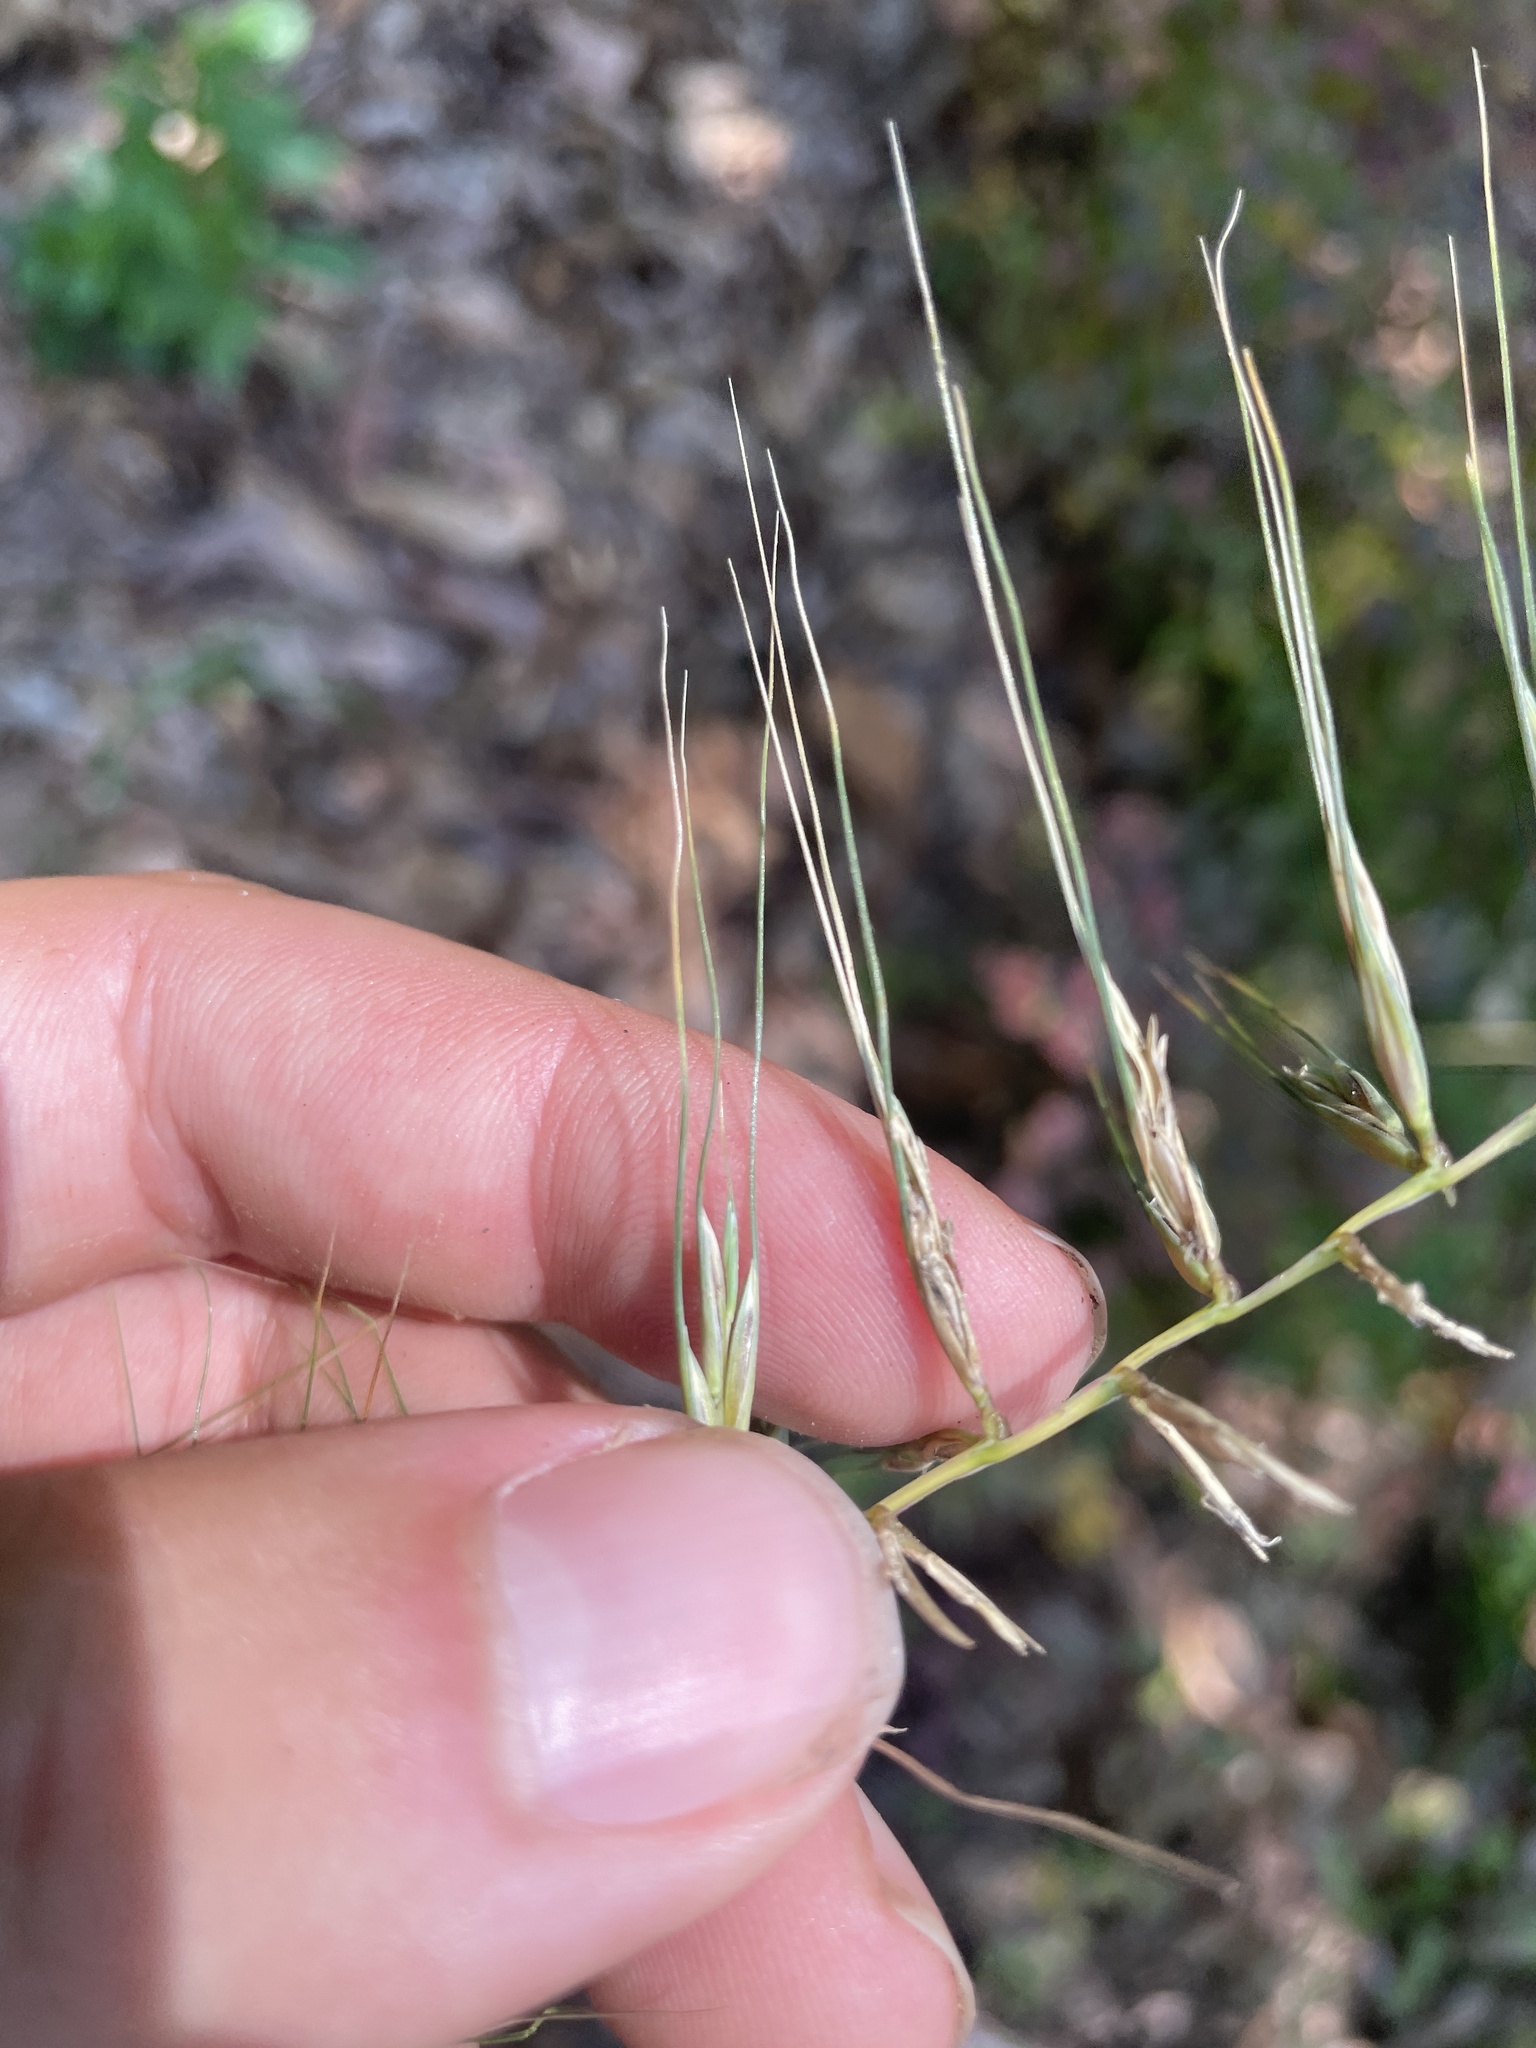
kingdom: Plantae
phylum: Tracheophyta
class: Liliopsida
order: Poales
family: Poaceae
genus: Elymus
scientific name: Elymus hystrix
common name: Bottlebrush grass
